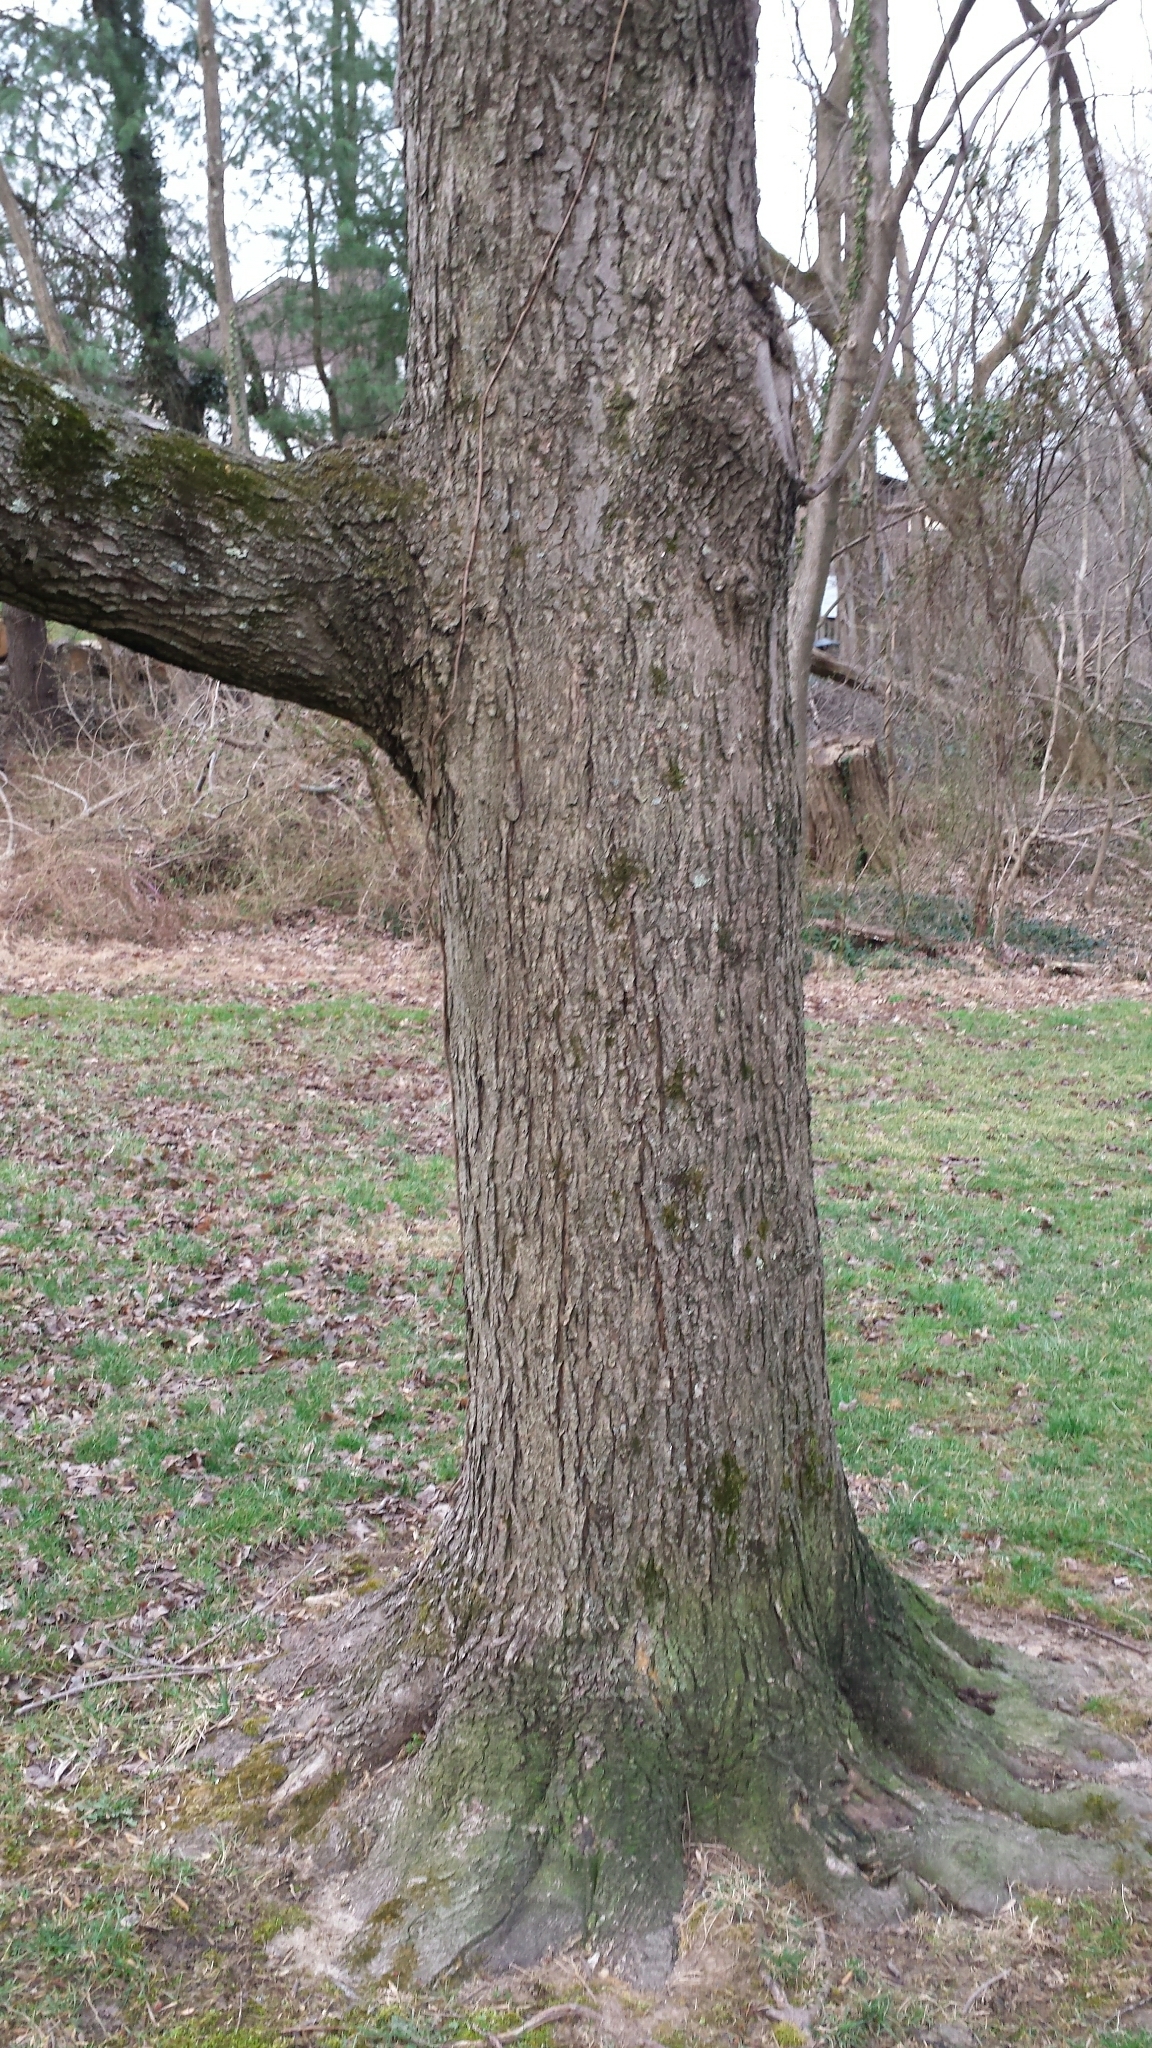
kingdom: Plantae
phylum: Tracheophyta
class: Magnoliopsida
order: Sapindales
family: Sapindaceae
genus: Acer
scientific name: Acer rubrum
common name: Red maple
